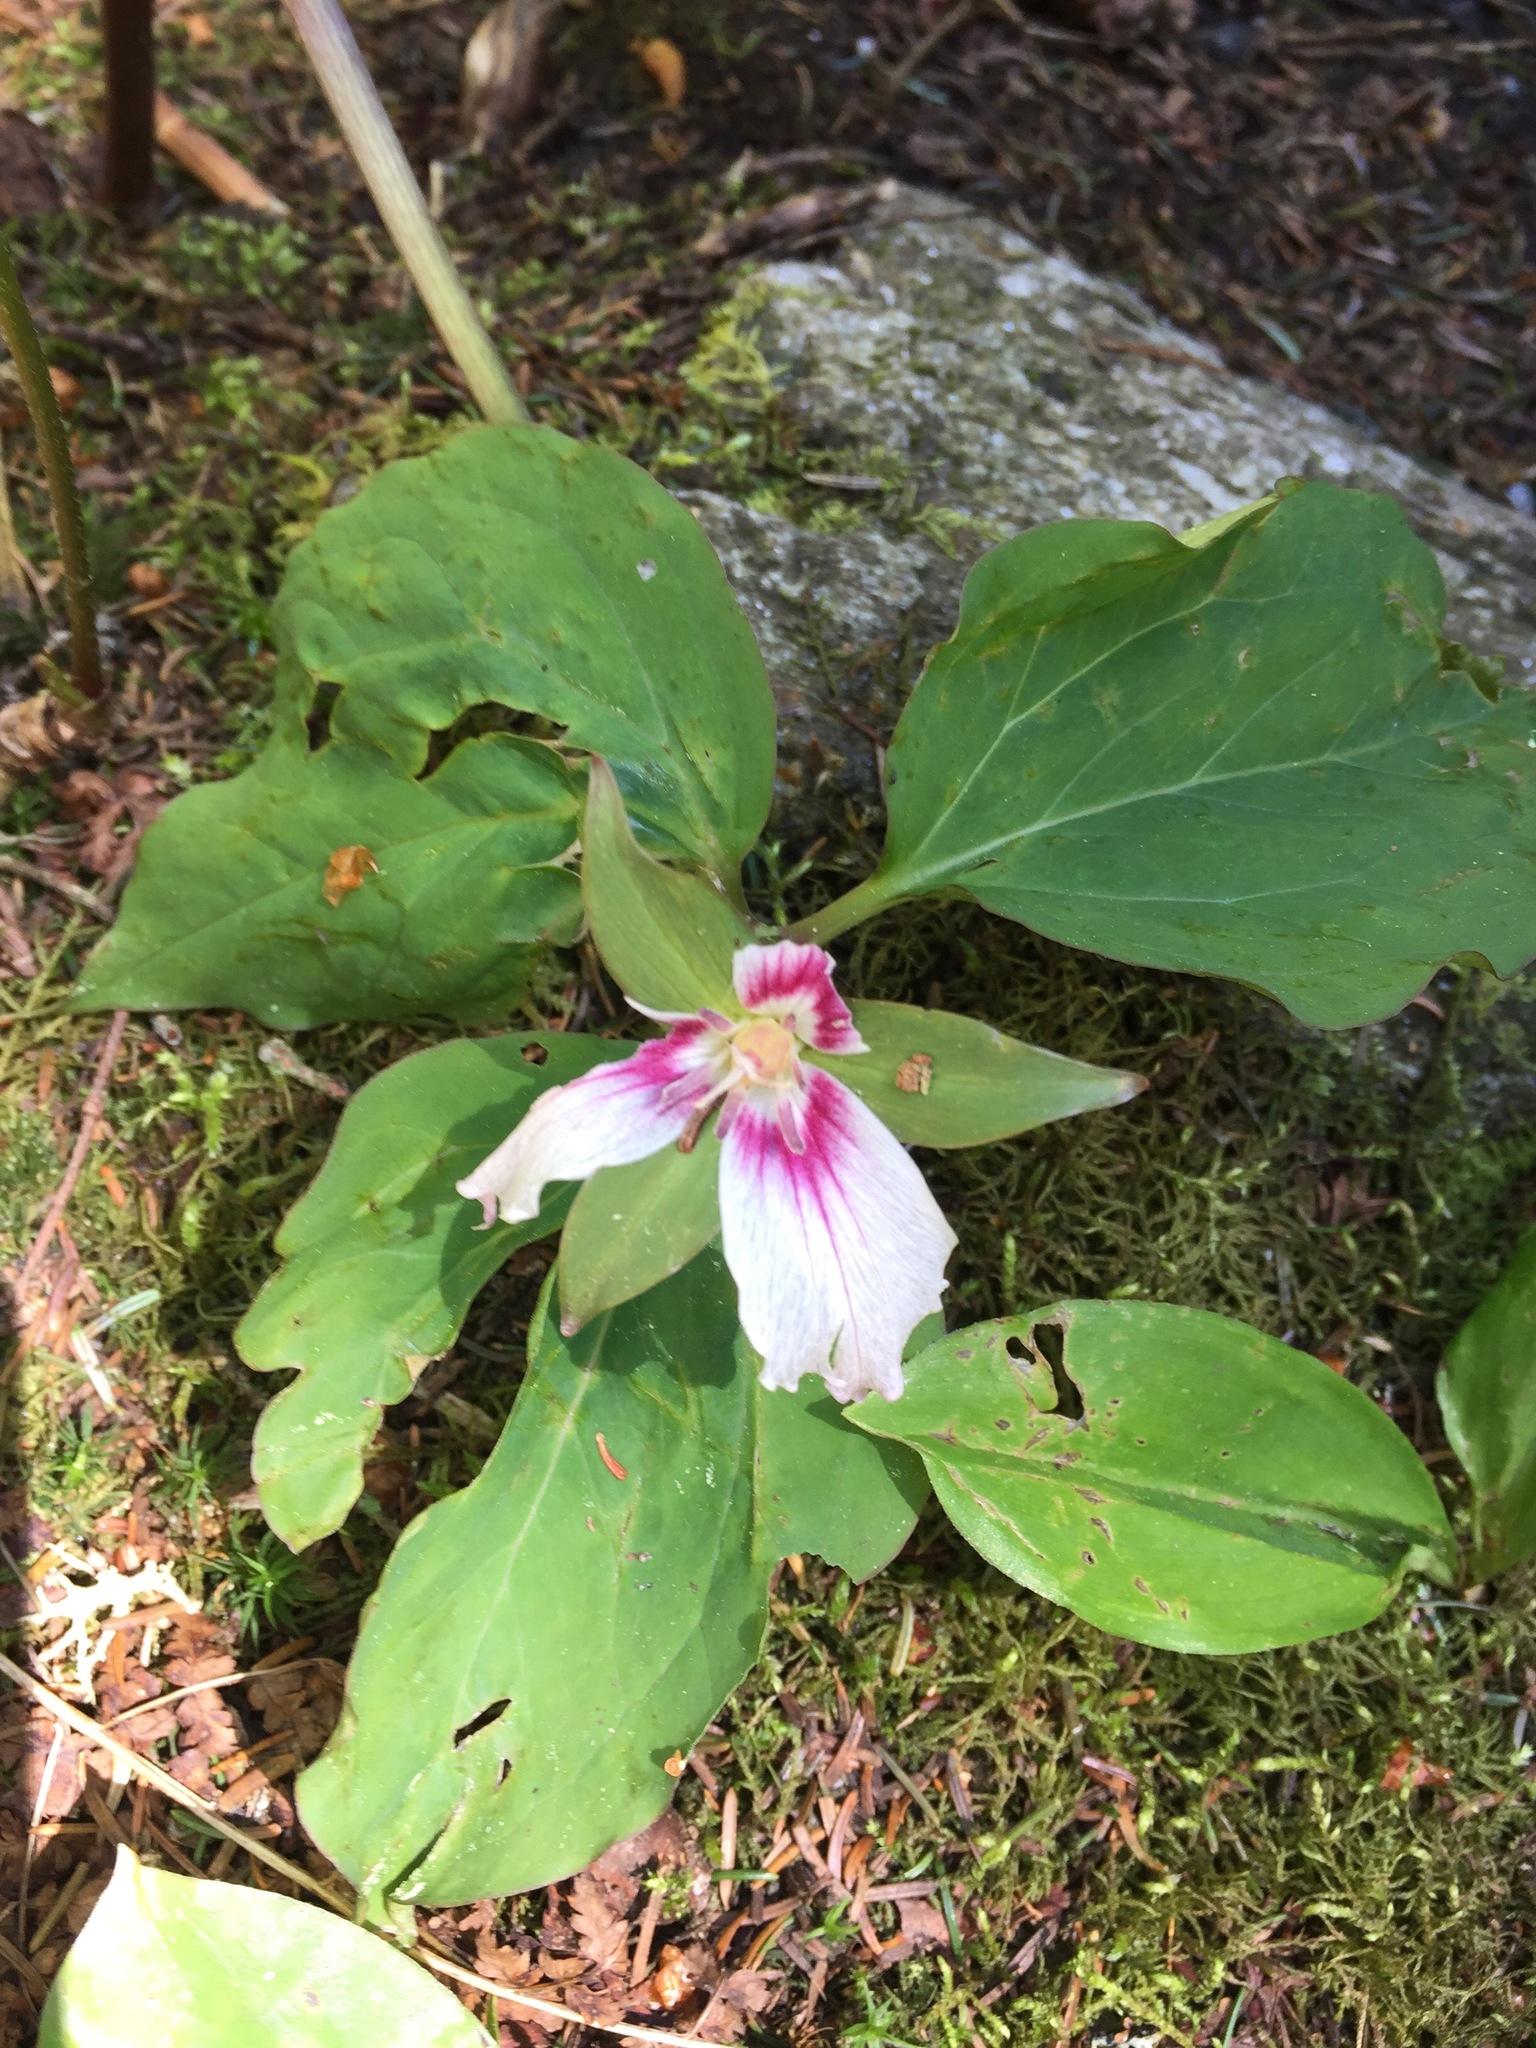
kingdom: Plantae
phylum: Tracheophyta
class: Liliopsida
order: Liliales
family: Melanthiaceae
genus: Trillium
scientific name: Trillium undulatum
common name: Paint trillium
